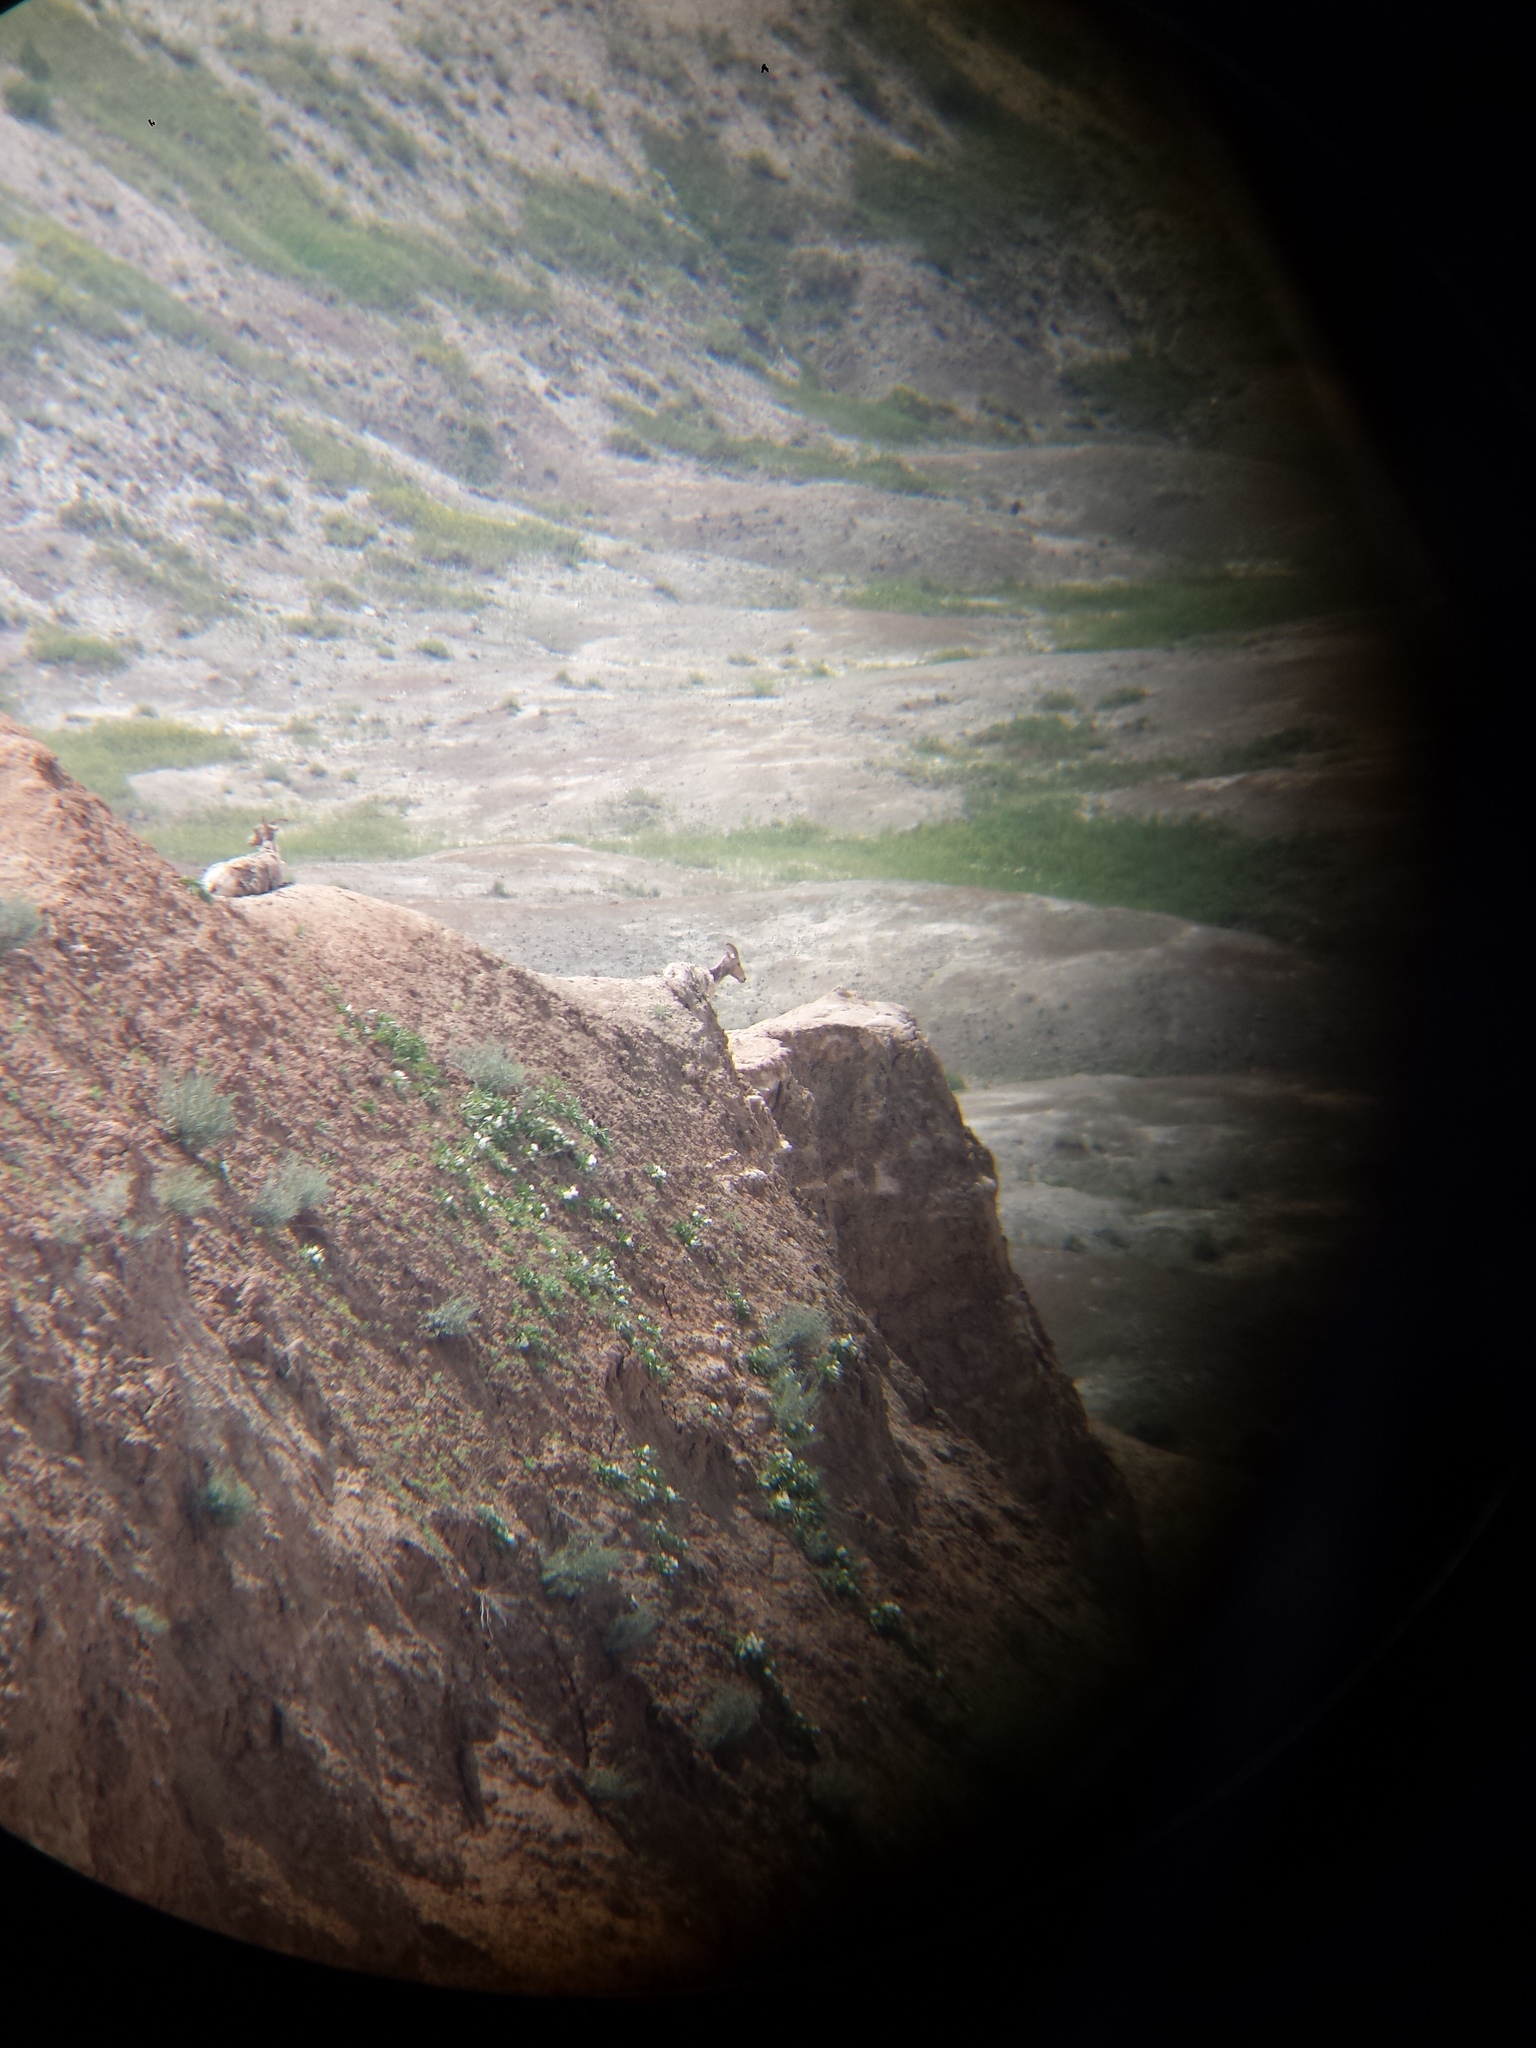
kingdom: Animalia
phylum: Chordata
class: Mammalia
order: Artiodactyla
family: Bovidae
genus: Ovis
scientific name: Ovis canadensis
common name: Bighorn sheep
